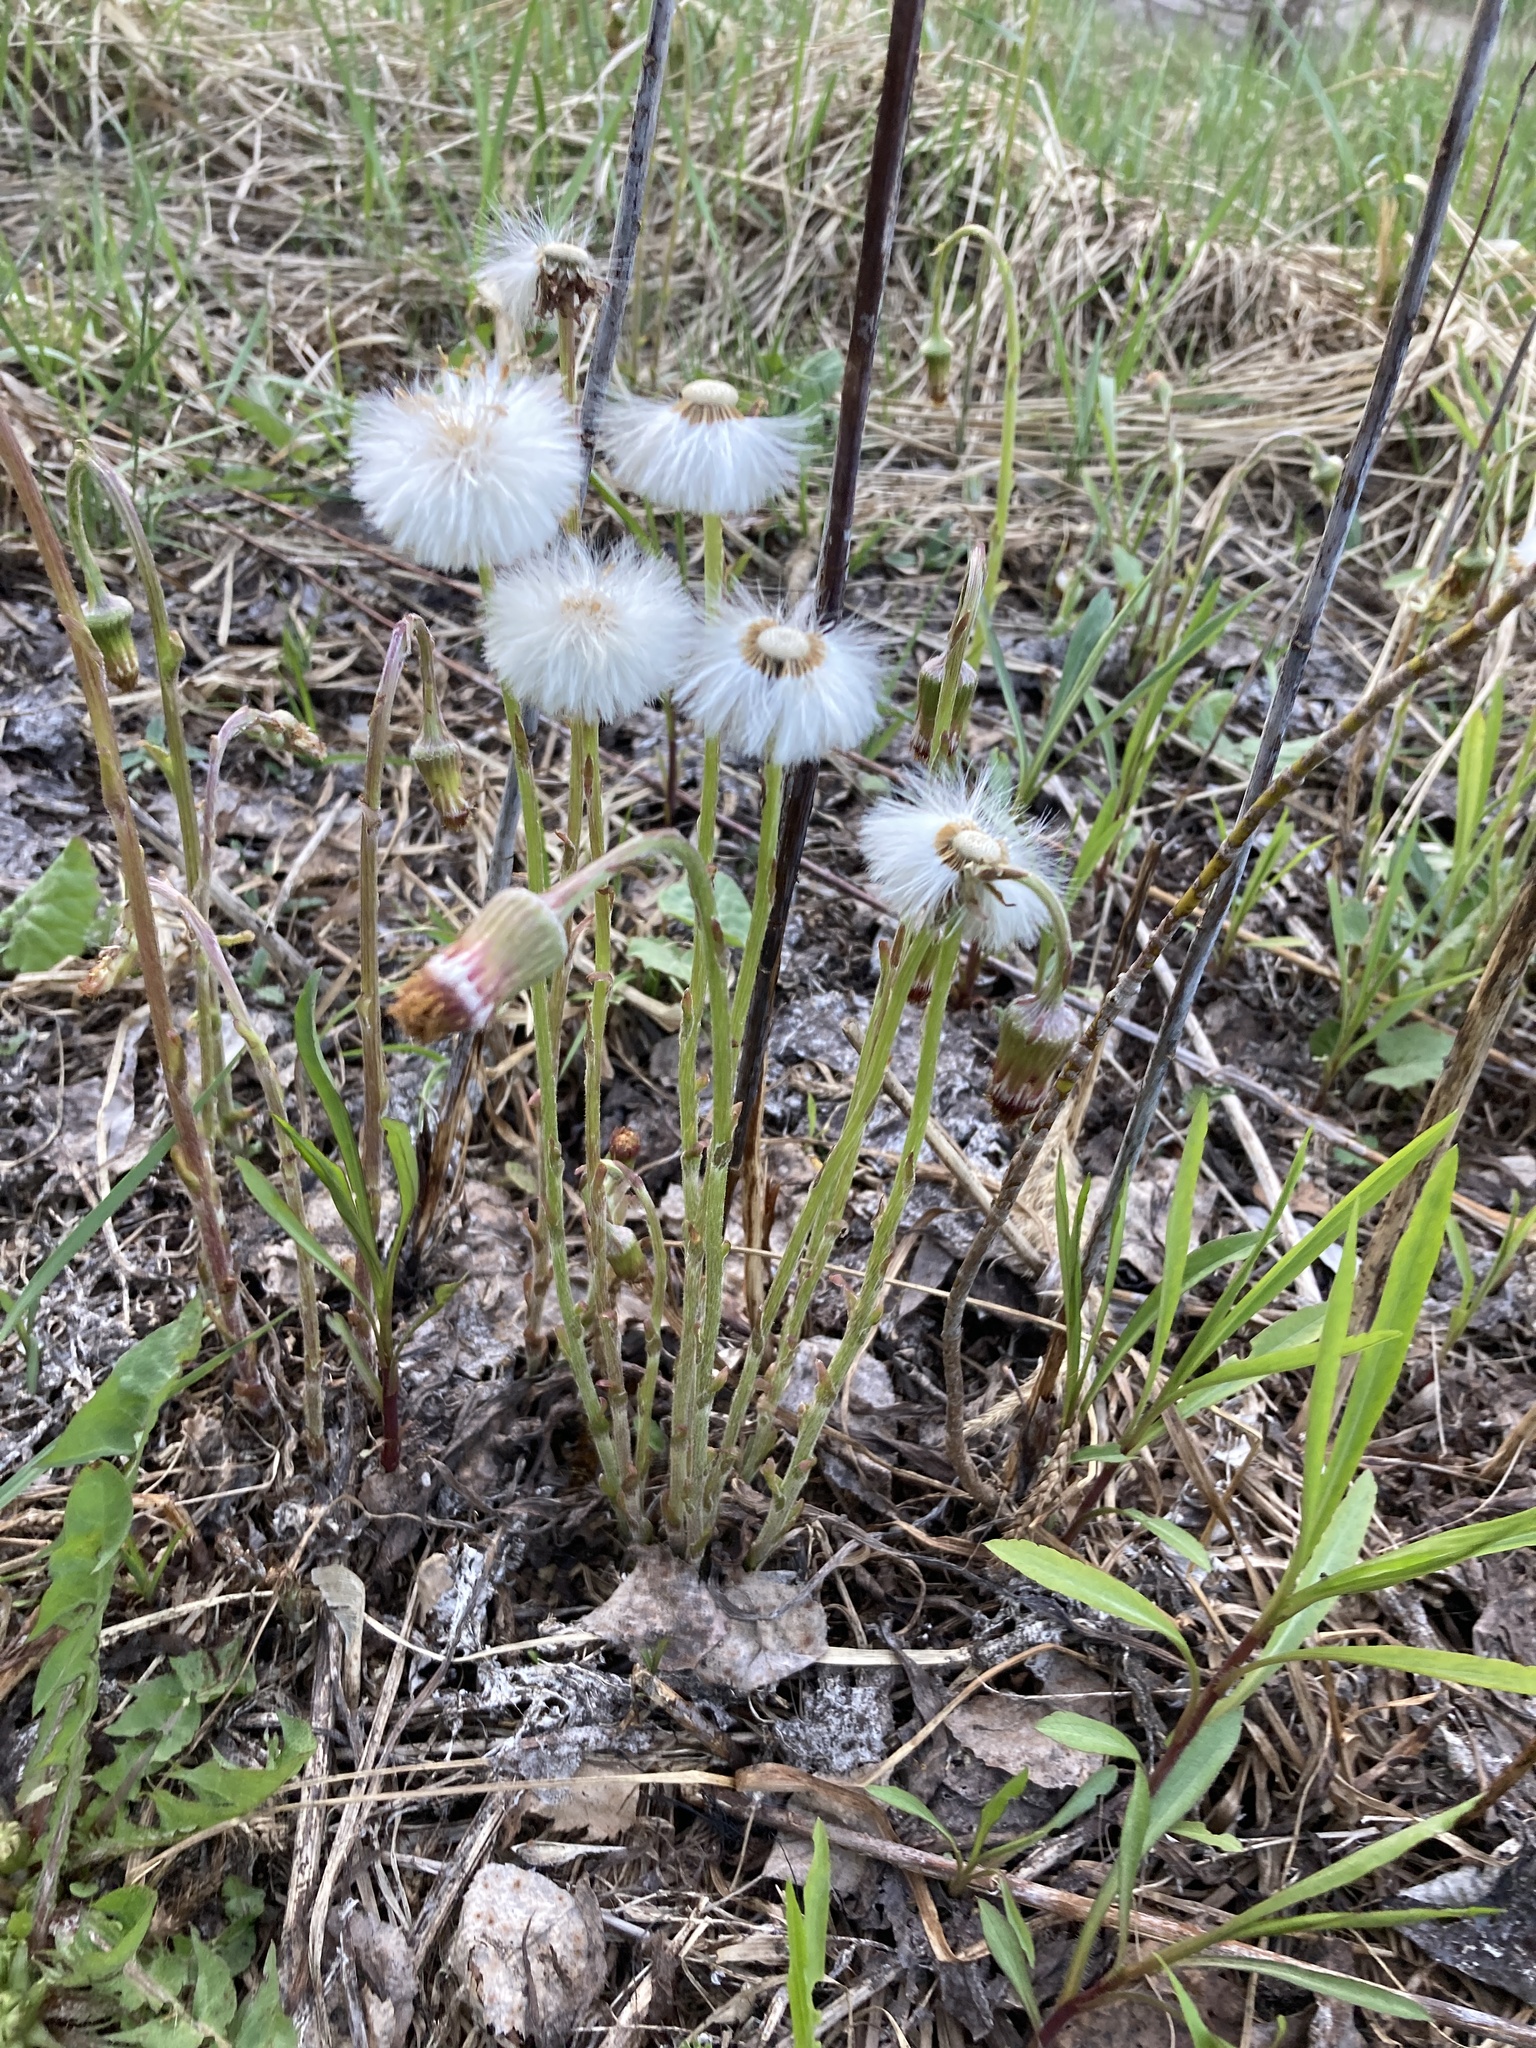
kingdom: Plantae
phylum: Tracheophyta
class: Magnoliopsida
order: Asterales
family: Asteraceae
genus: Tussilago
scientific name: Tussilago farfara
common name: Coltsfoot
